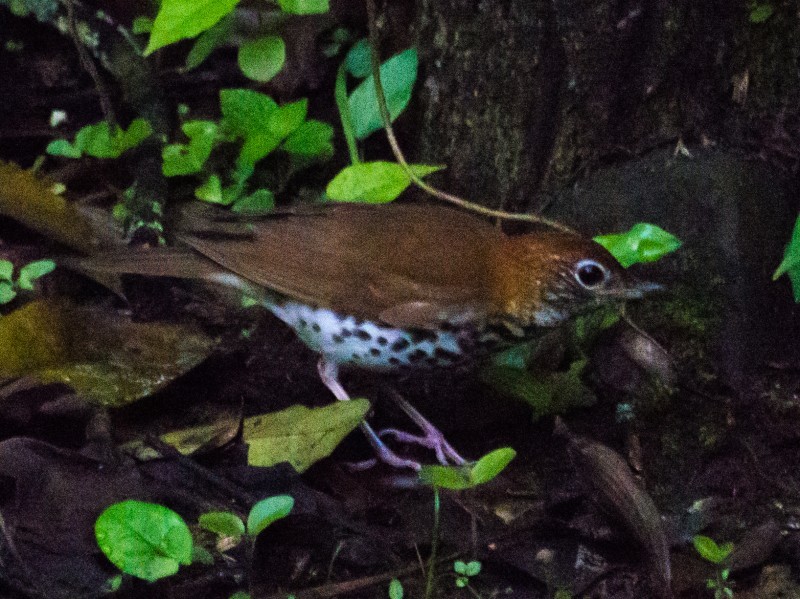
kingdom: Animalia
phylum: Chordata
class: Aves
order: Passeriformes
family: Turdidae
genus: Hylocichla
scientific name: Hylocichla mustelina
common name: Wood thrush
